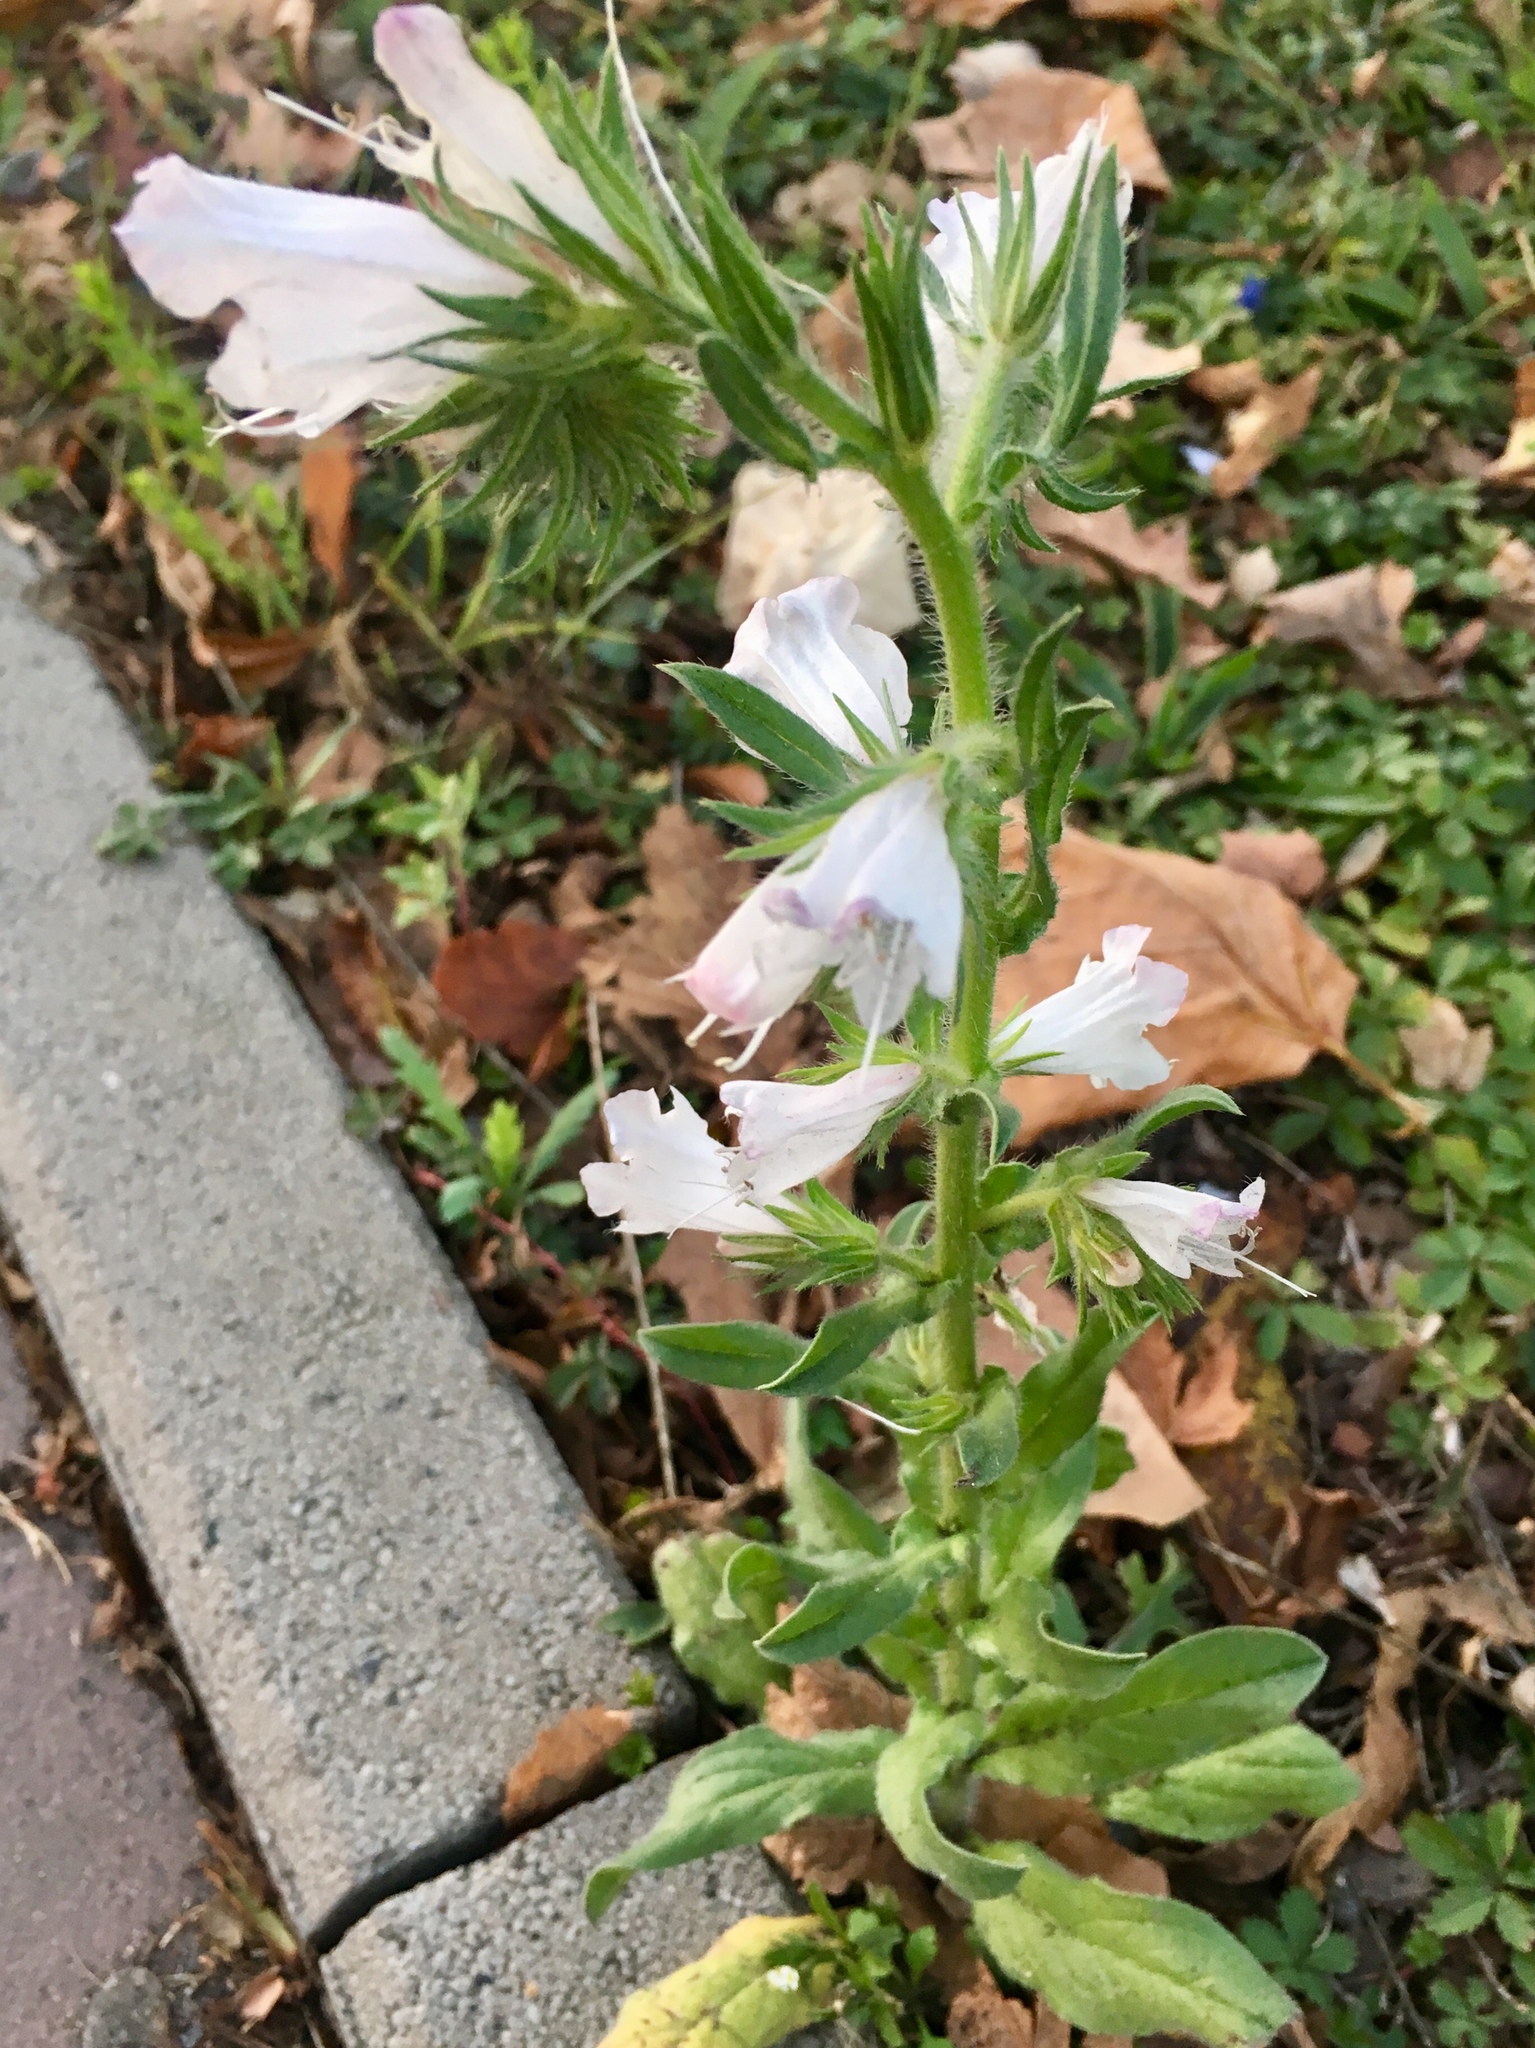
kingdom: Plantae
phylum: Tracheophyta
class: Magnoliopsida
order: Boraginales
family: Boraginaceae
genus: Echium
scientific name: Echium vulgare
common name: Common viper's bugloss
